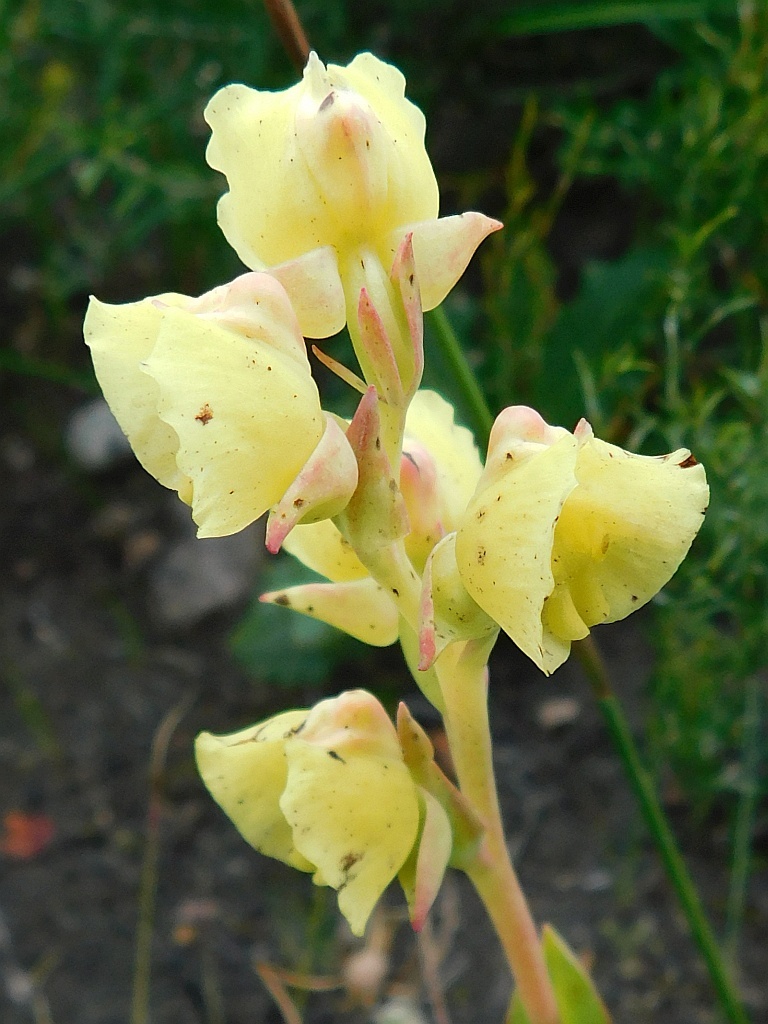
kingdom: Plantae
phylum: Tracheophyta
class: Liliopsida
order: Asparagales
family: Orchidaceae
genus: Pterygodium
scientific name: Pterygodium catholicum
